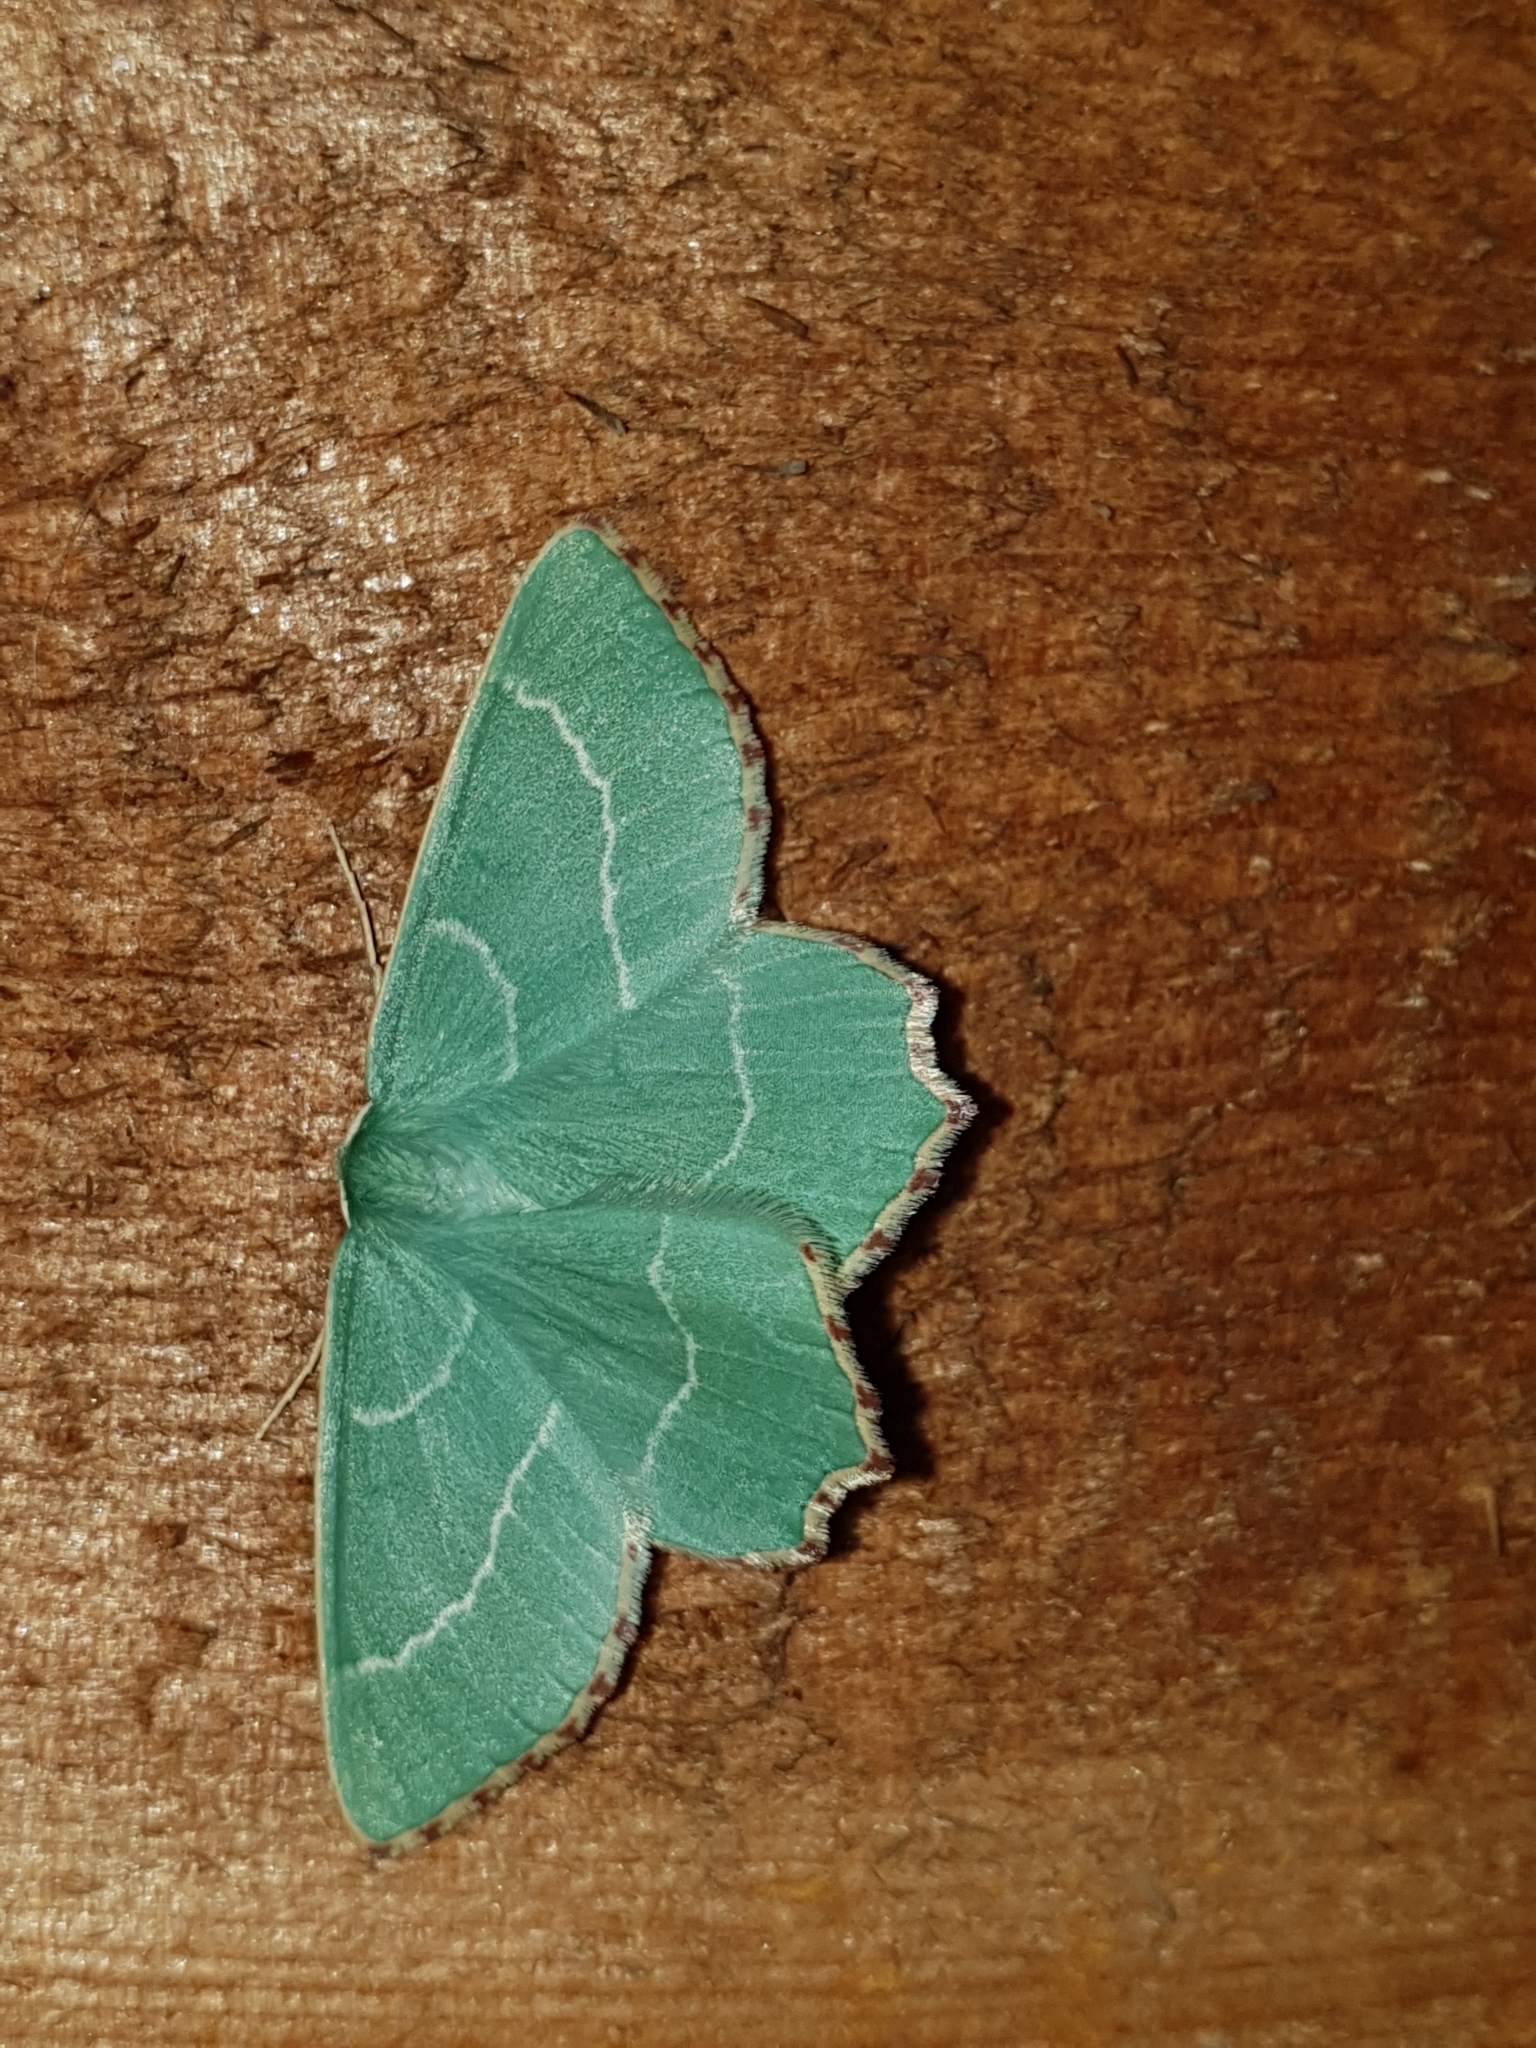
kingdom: Animalia
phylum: Arthropoda
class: Insecta
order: Lepidoptera
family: Geometridae
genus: Thalera
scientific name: Thalera fimbrialis
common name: Sussex emerald
